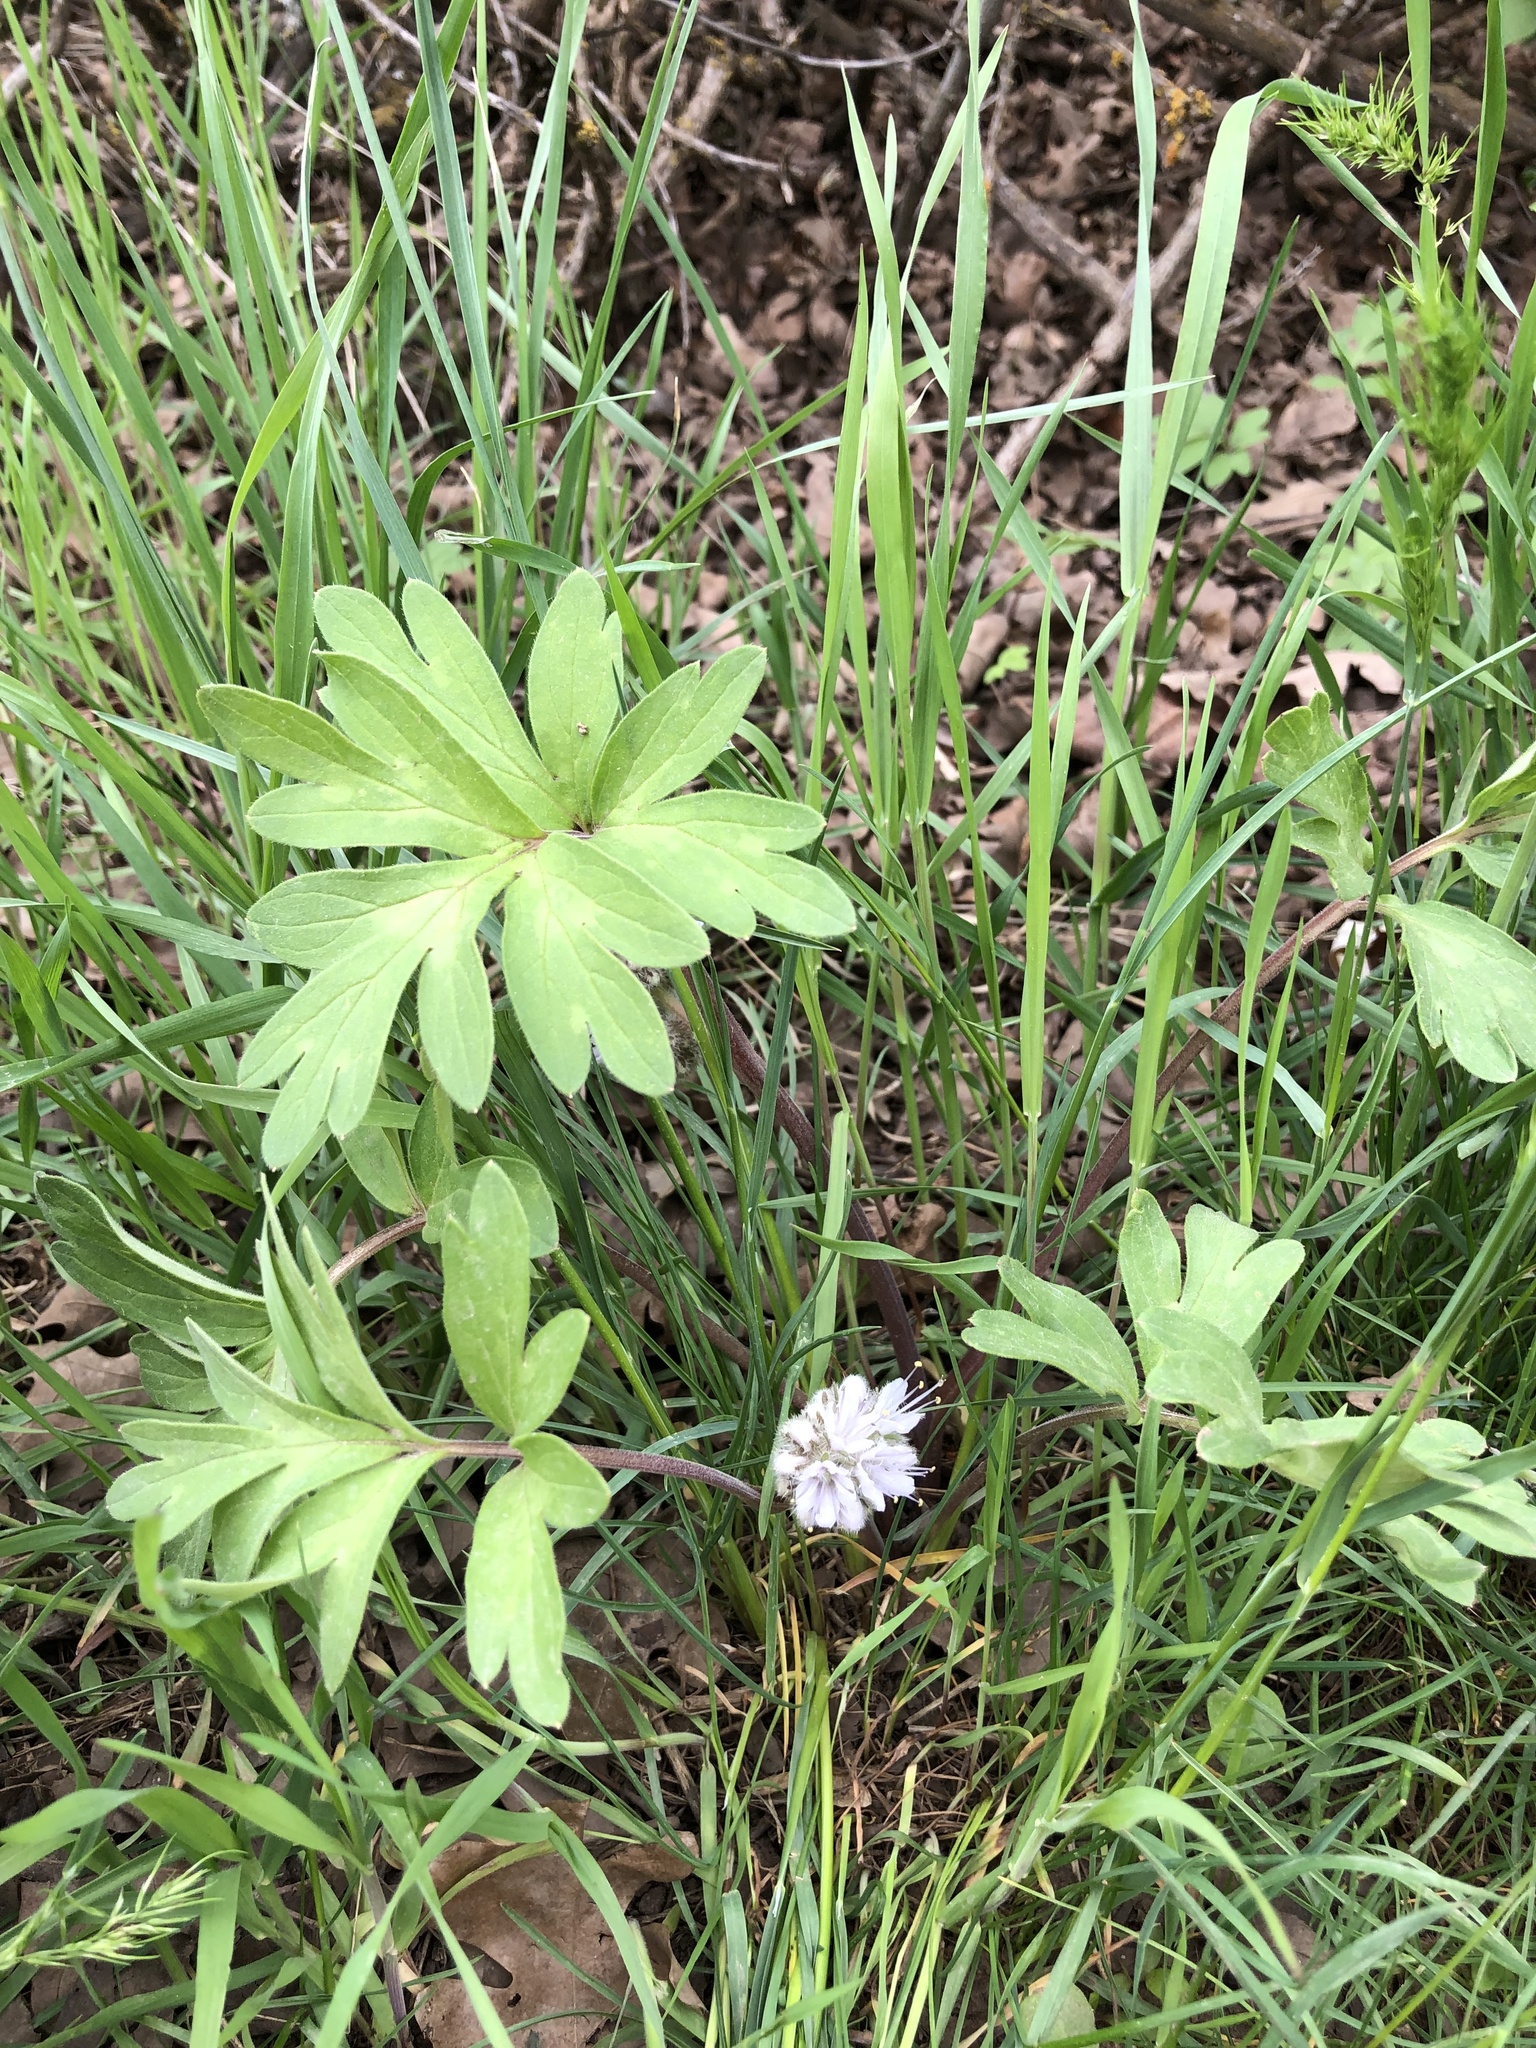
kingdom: Plantae
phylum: Tracheophyta
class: Magnoliopsida
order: Boraginales
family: Hydrophyllaceae
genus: Hydrophyllum
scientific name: Hydrophyllum capitatum
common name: Woollen-breeches
